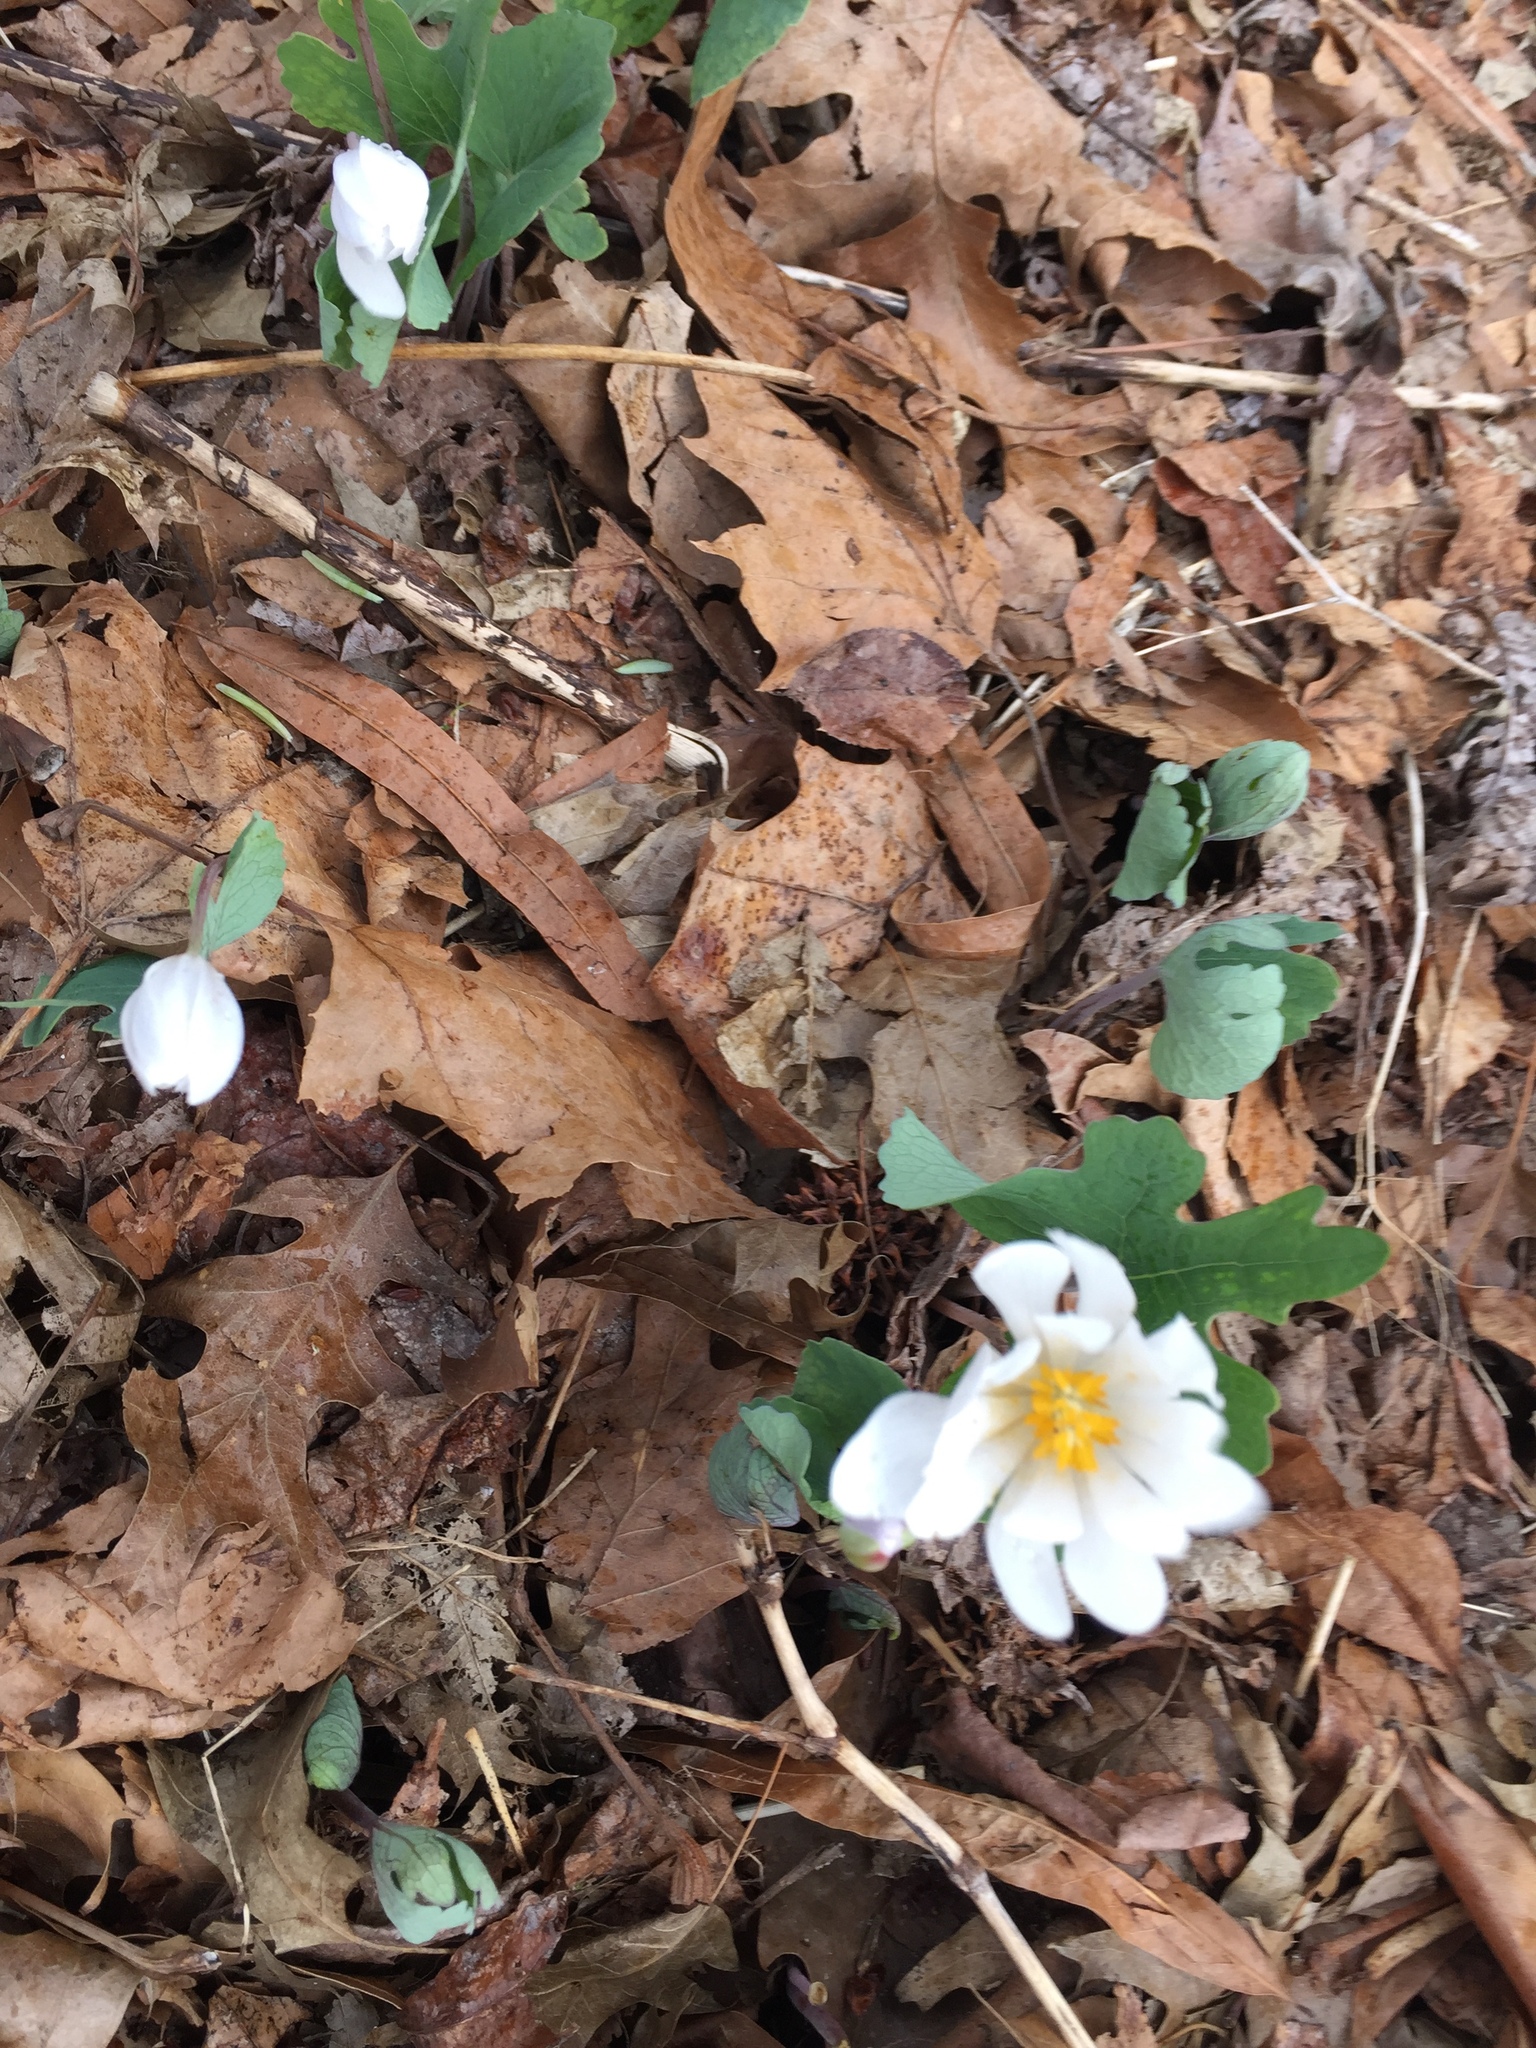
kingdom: Plantae
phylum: Tracheophyta
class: Magnoliopsida
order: Ranunculales
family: Papaveraceae
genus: Sanguinaria
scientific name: Sanguinaria canadensis
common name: Bloodroot
